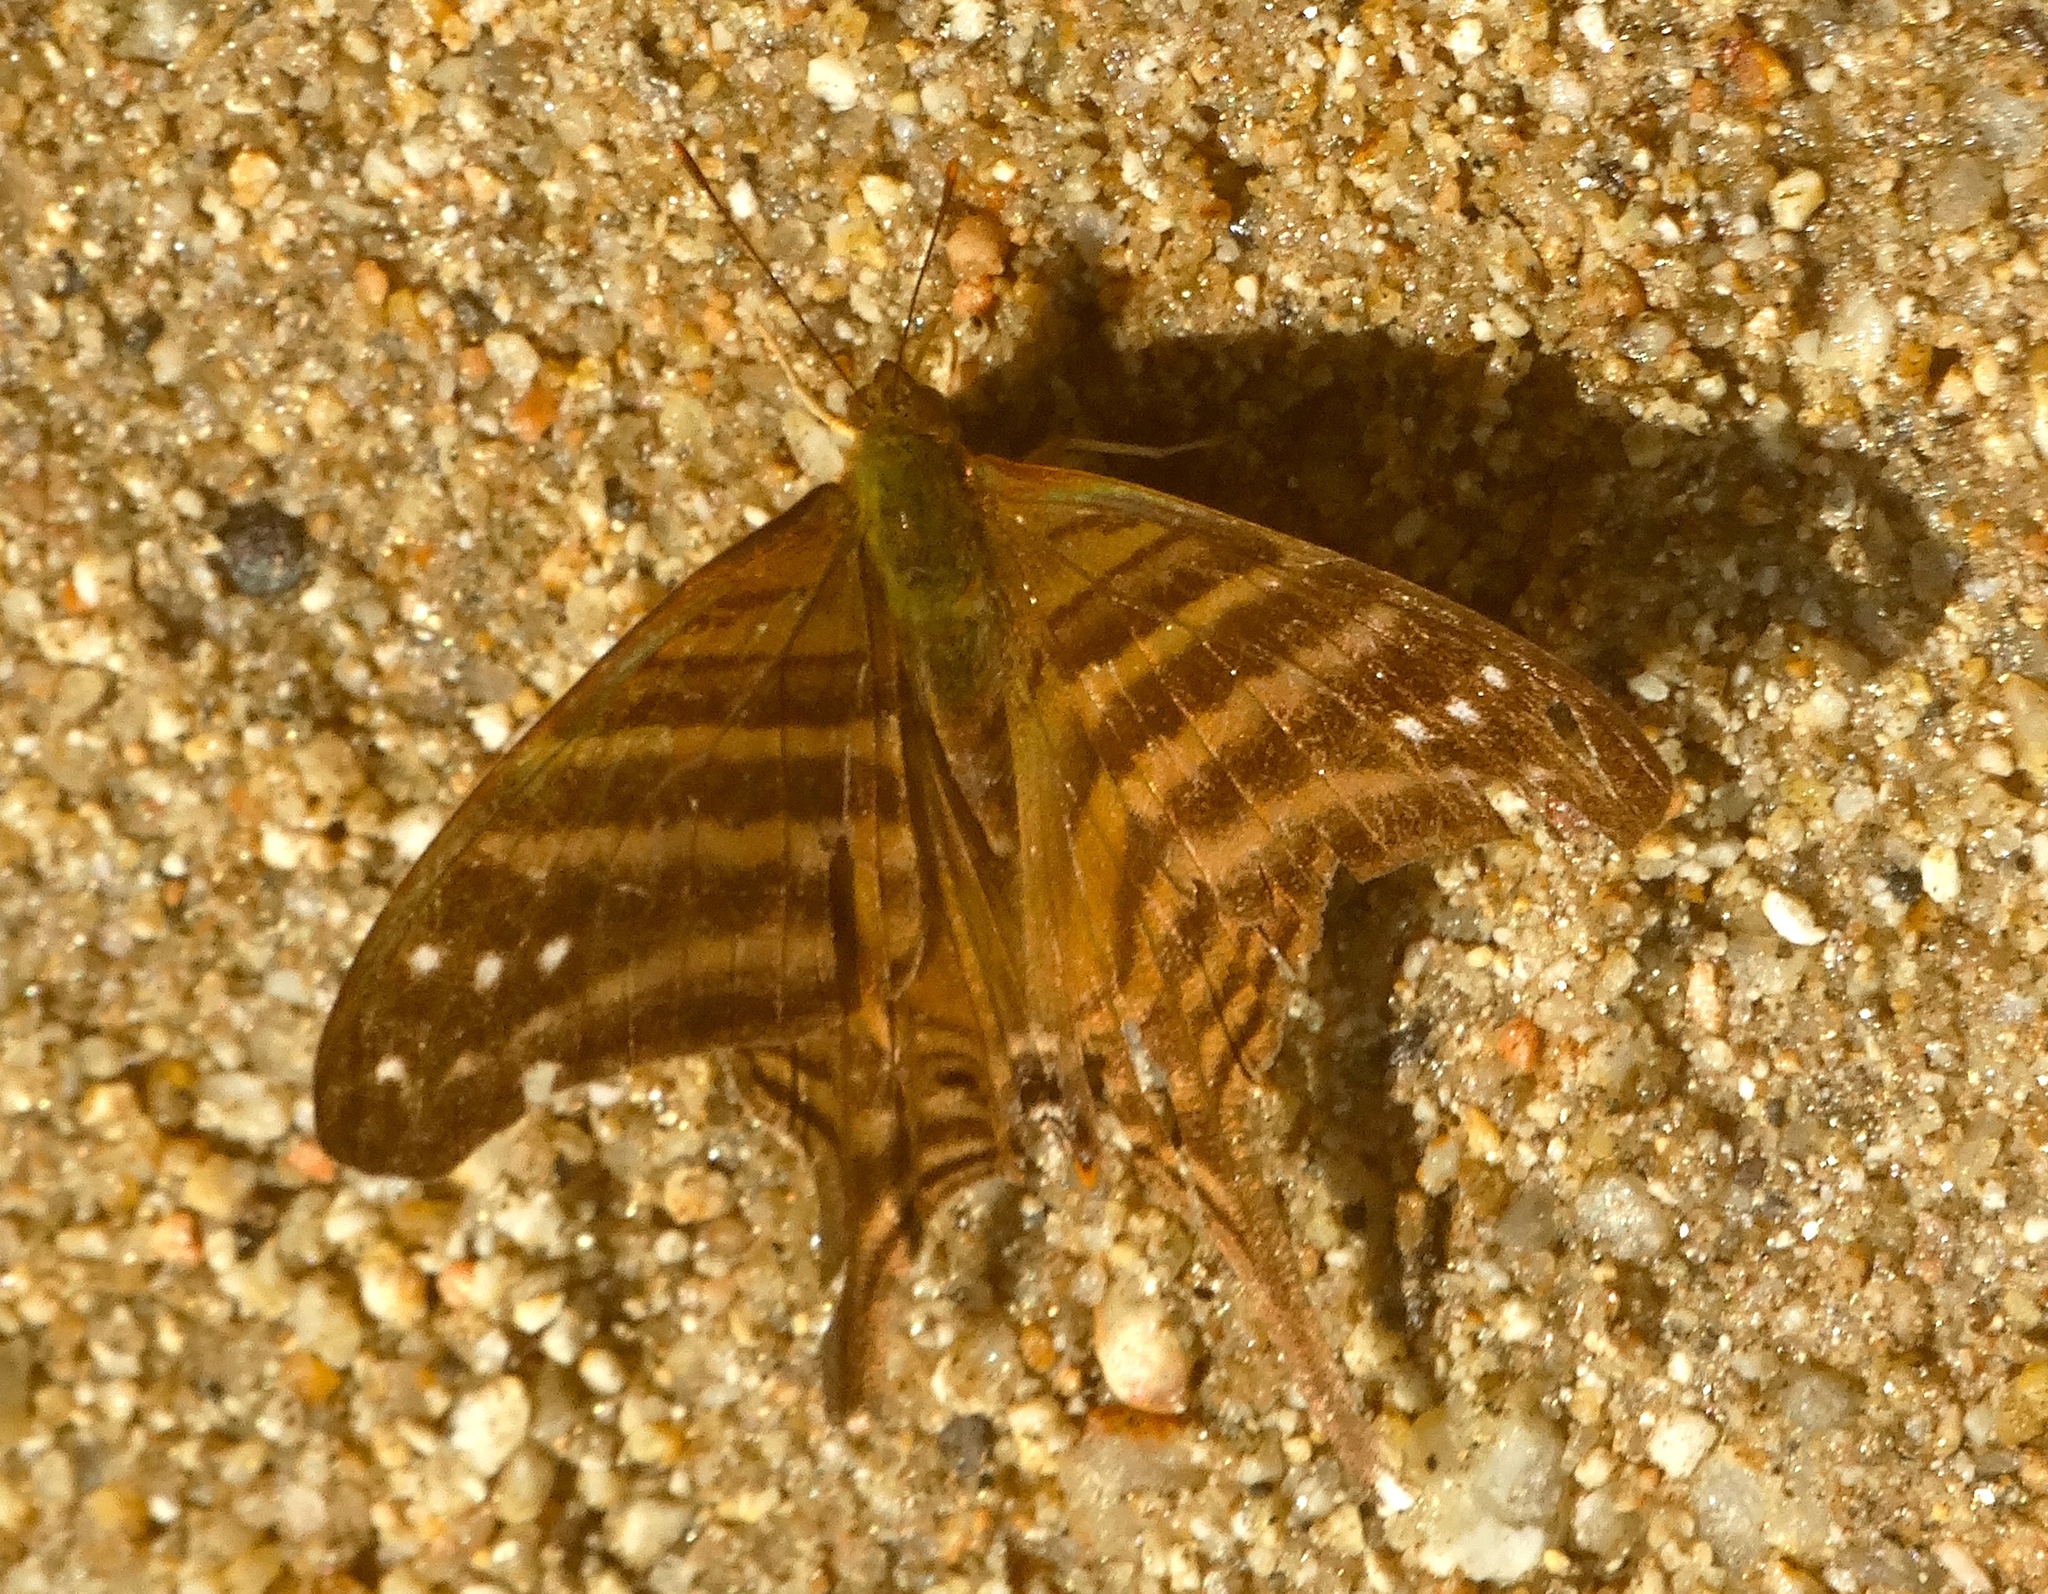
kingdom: Animalia
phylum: Arthropoda
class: Insecta
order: Lepidoptera
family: Nymphalidae
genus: Marpesia
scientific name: Marpesia chiron
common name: Many-banded daggerwing
